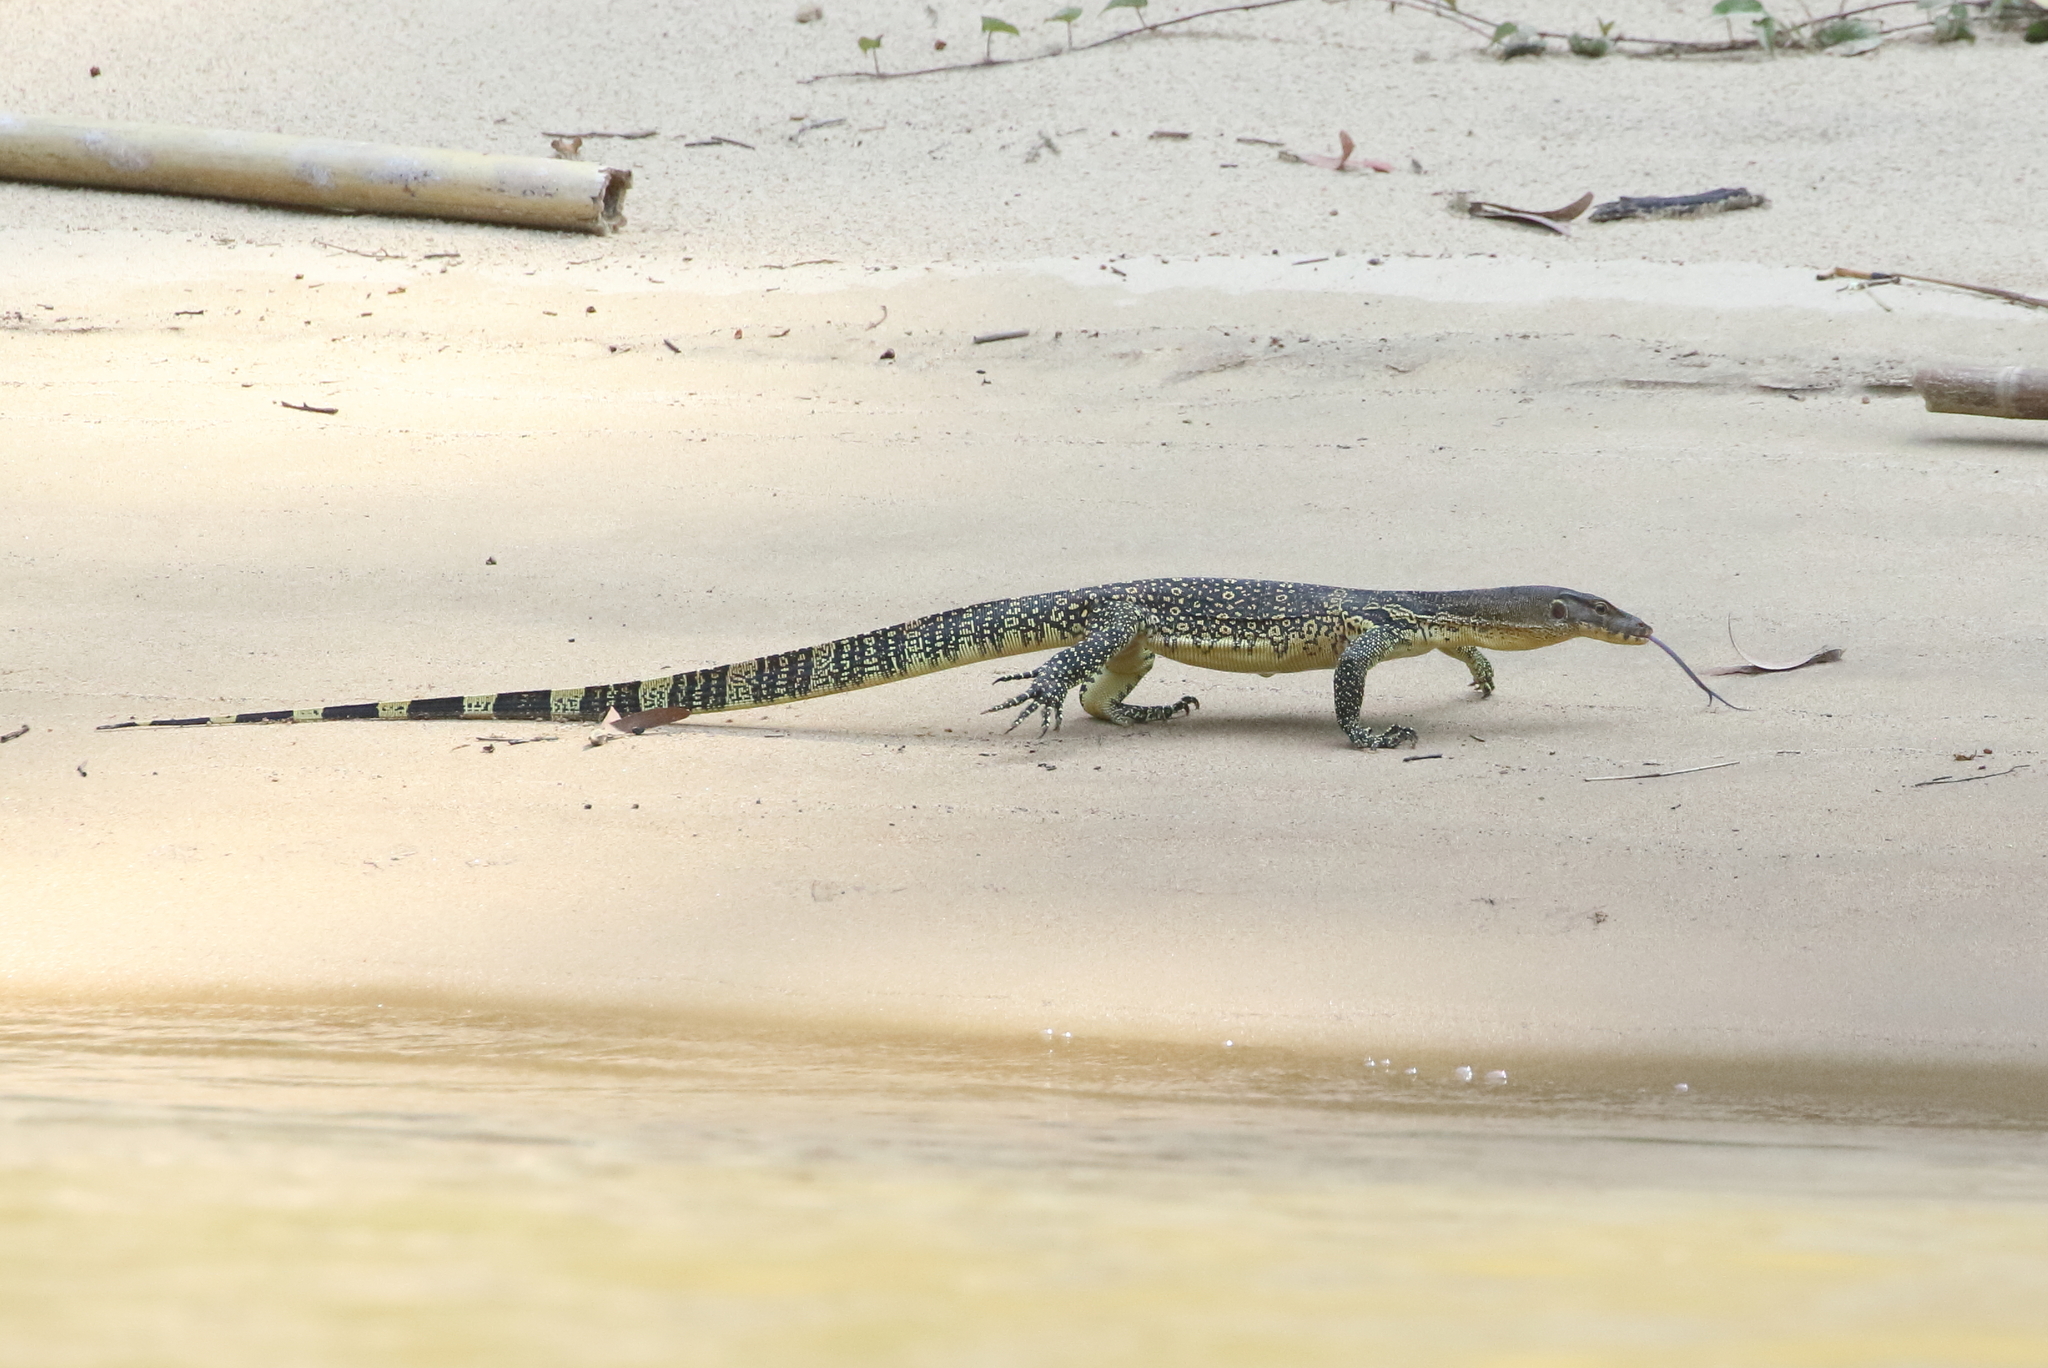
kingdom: Animalia
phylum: Chordata
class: Squamata
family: Varanidae
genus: Varanus
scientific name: Varanus salvator
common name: Common water monitor
